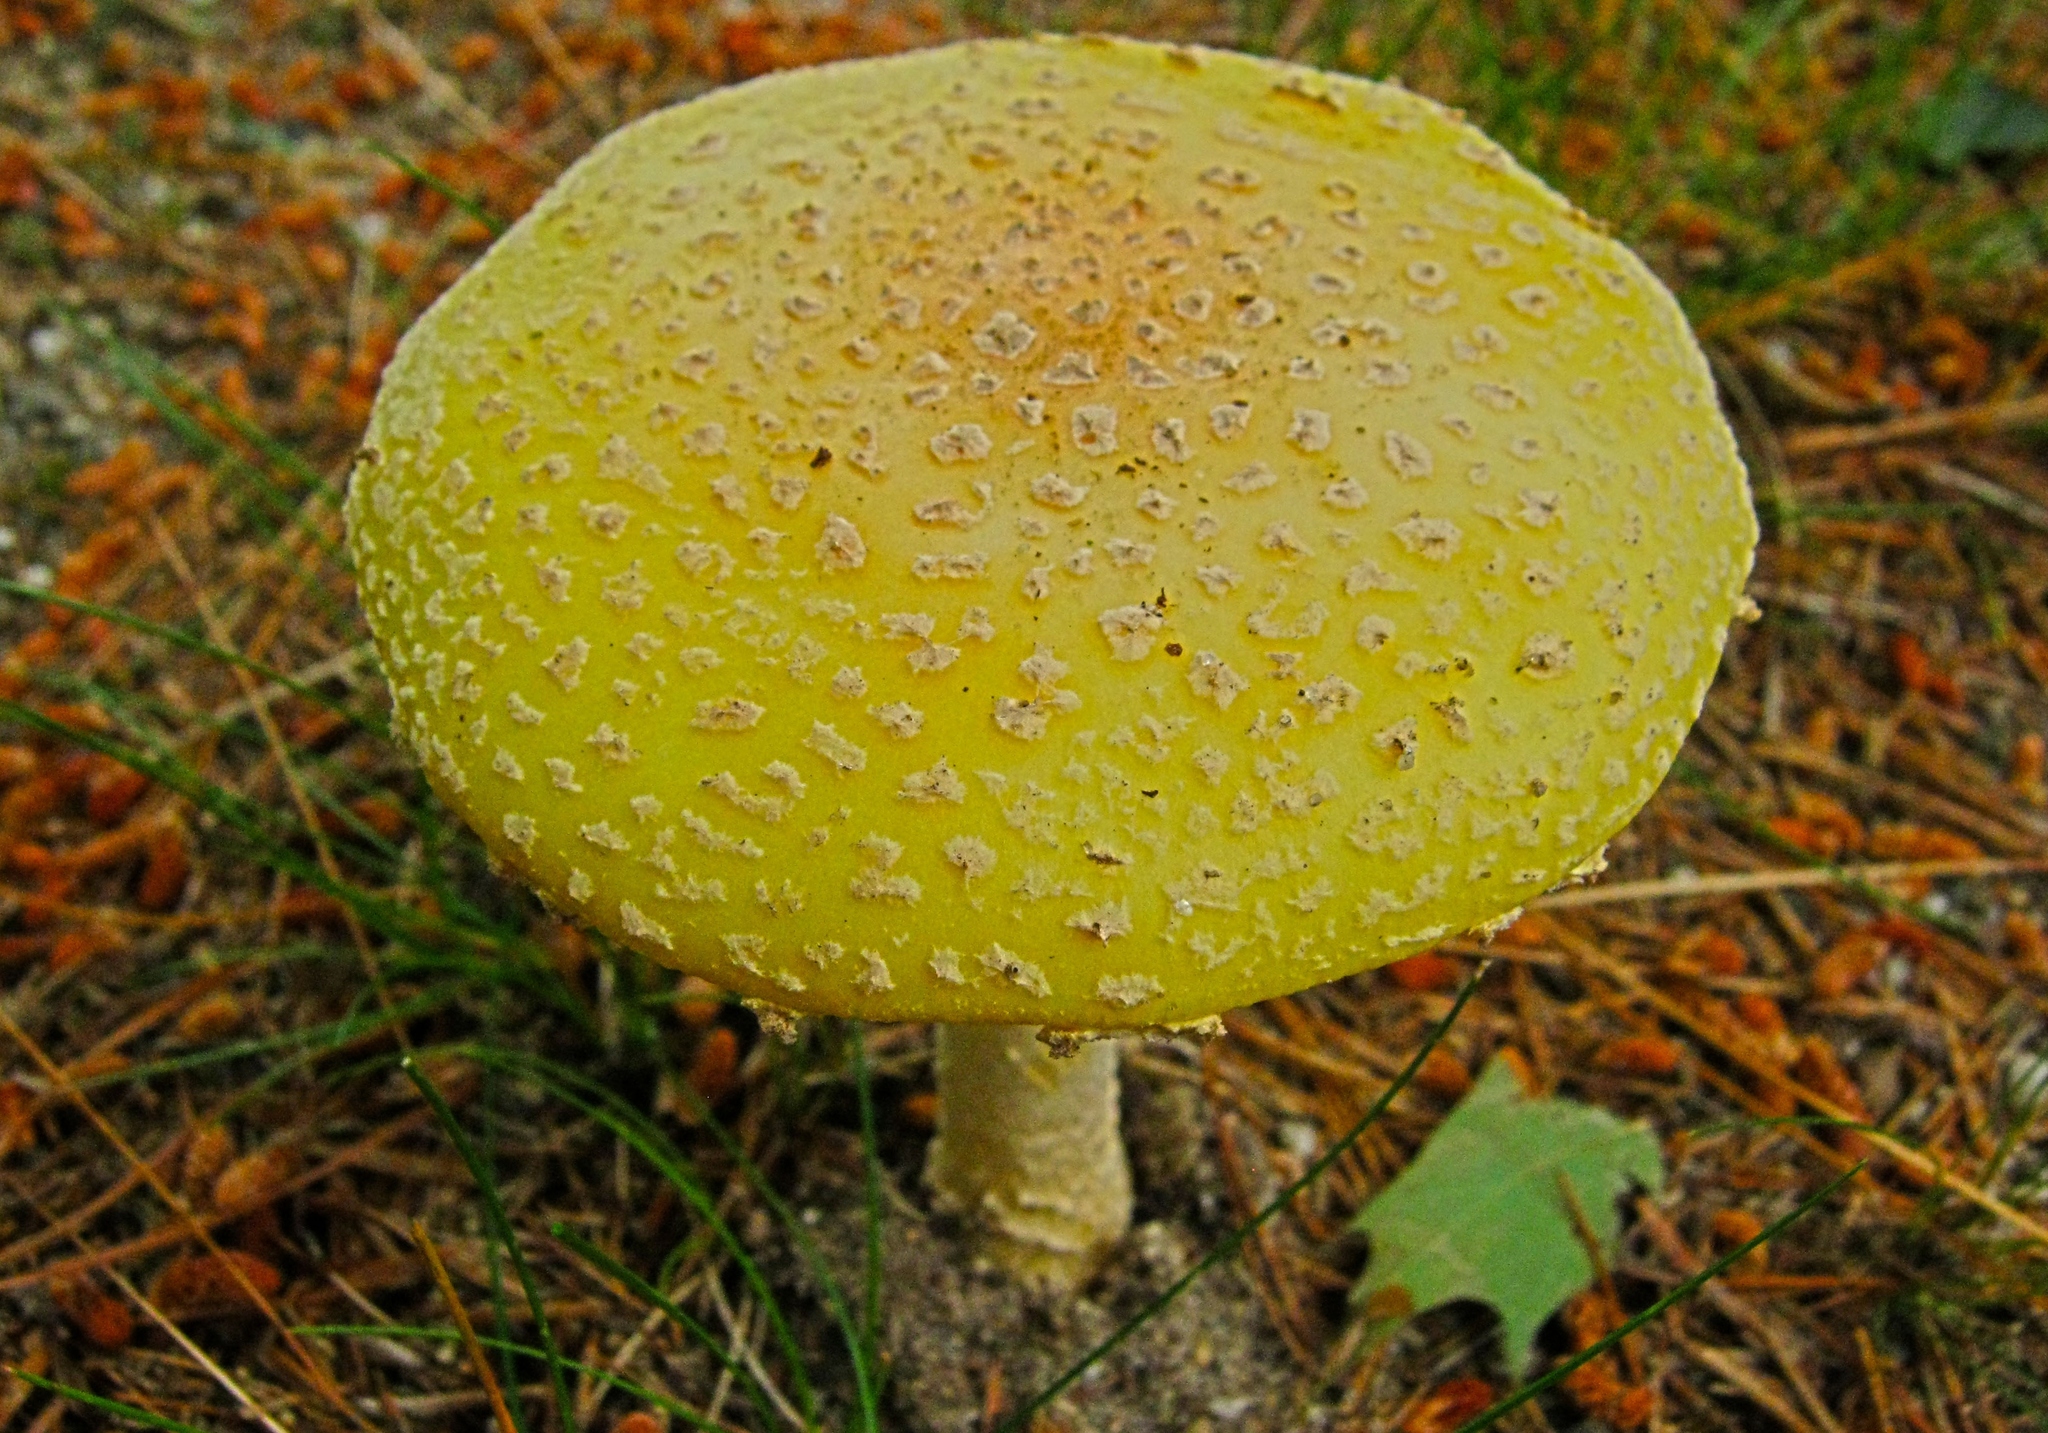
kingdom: Fungi
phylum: Basidiomycota
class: Agaricomycetes
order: Agaricales
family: Amanitaceae
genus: Amanita
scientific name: Amanita muscaria
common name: Fly agaric
